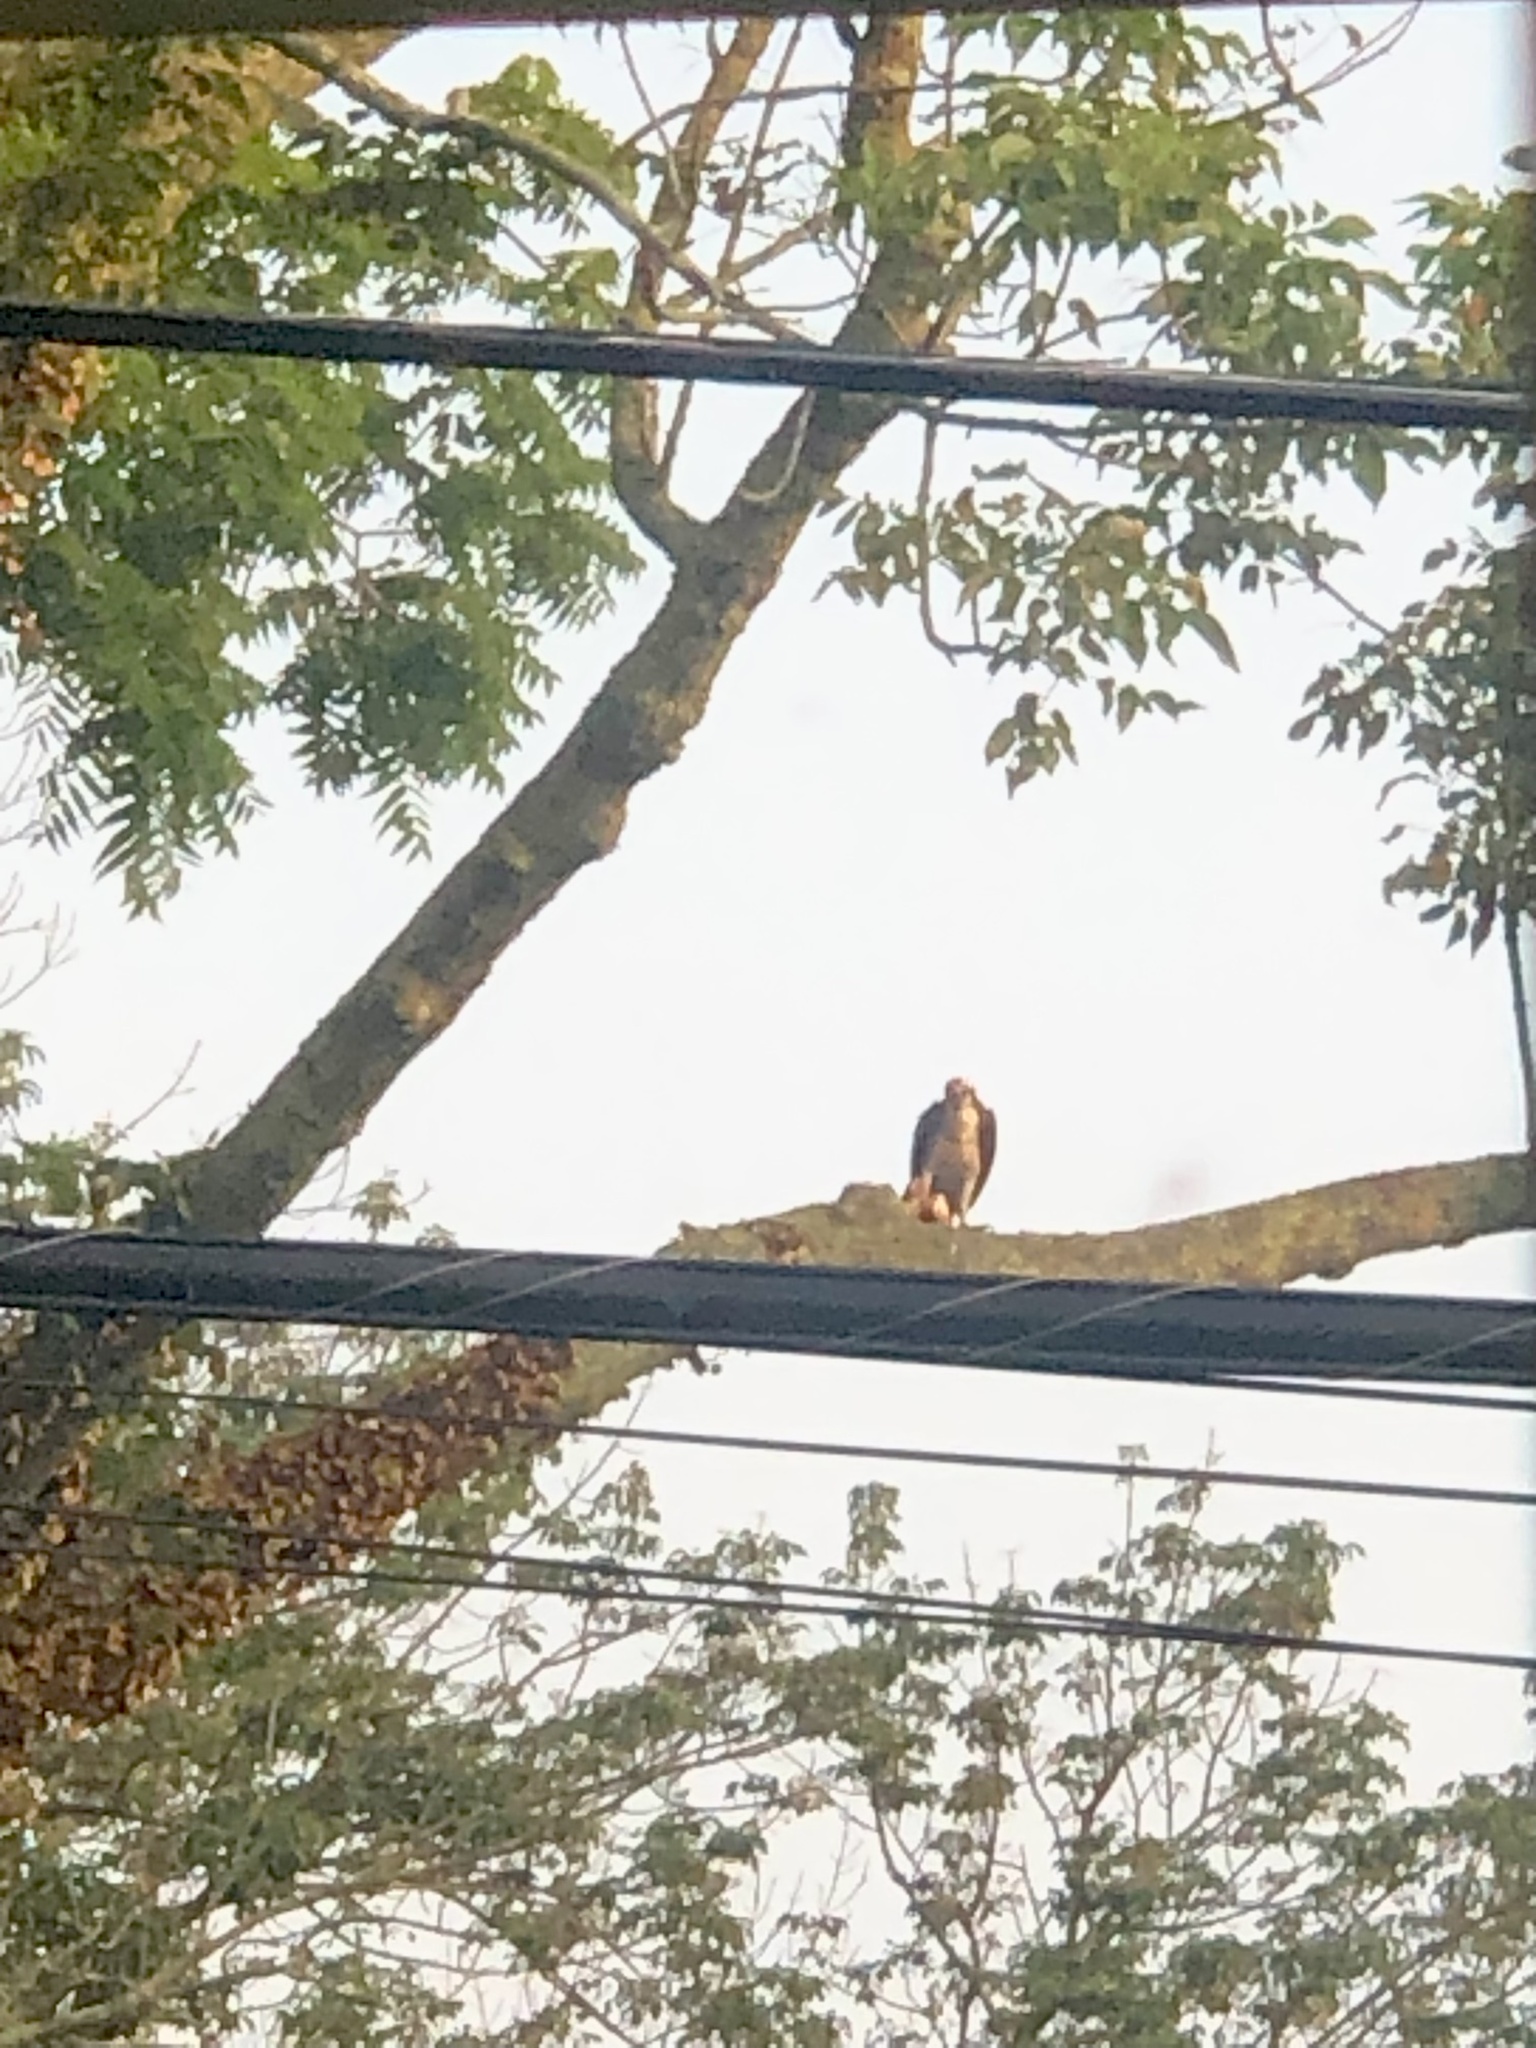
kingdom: Animalia
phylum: Chordata
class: Aves
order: Accipitriformes
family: Pandionidae
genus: Pandion
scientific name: Pandion haliaetus
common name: Osprey
